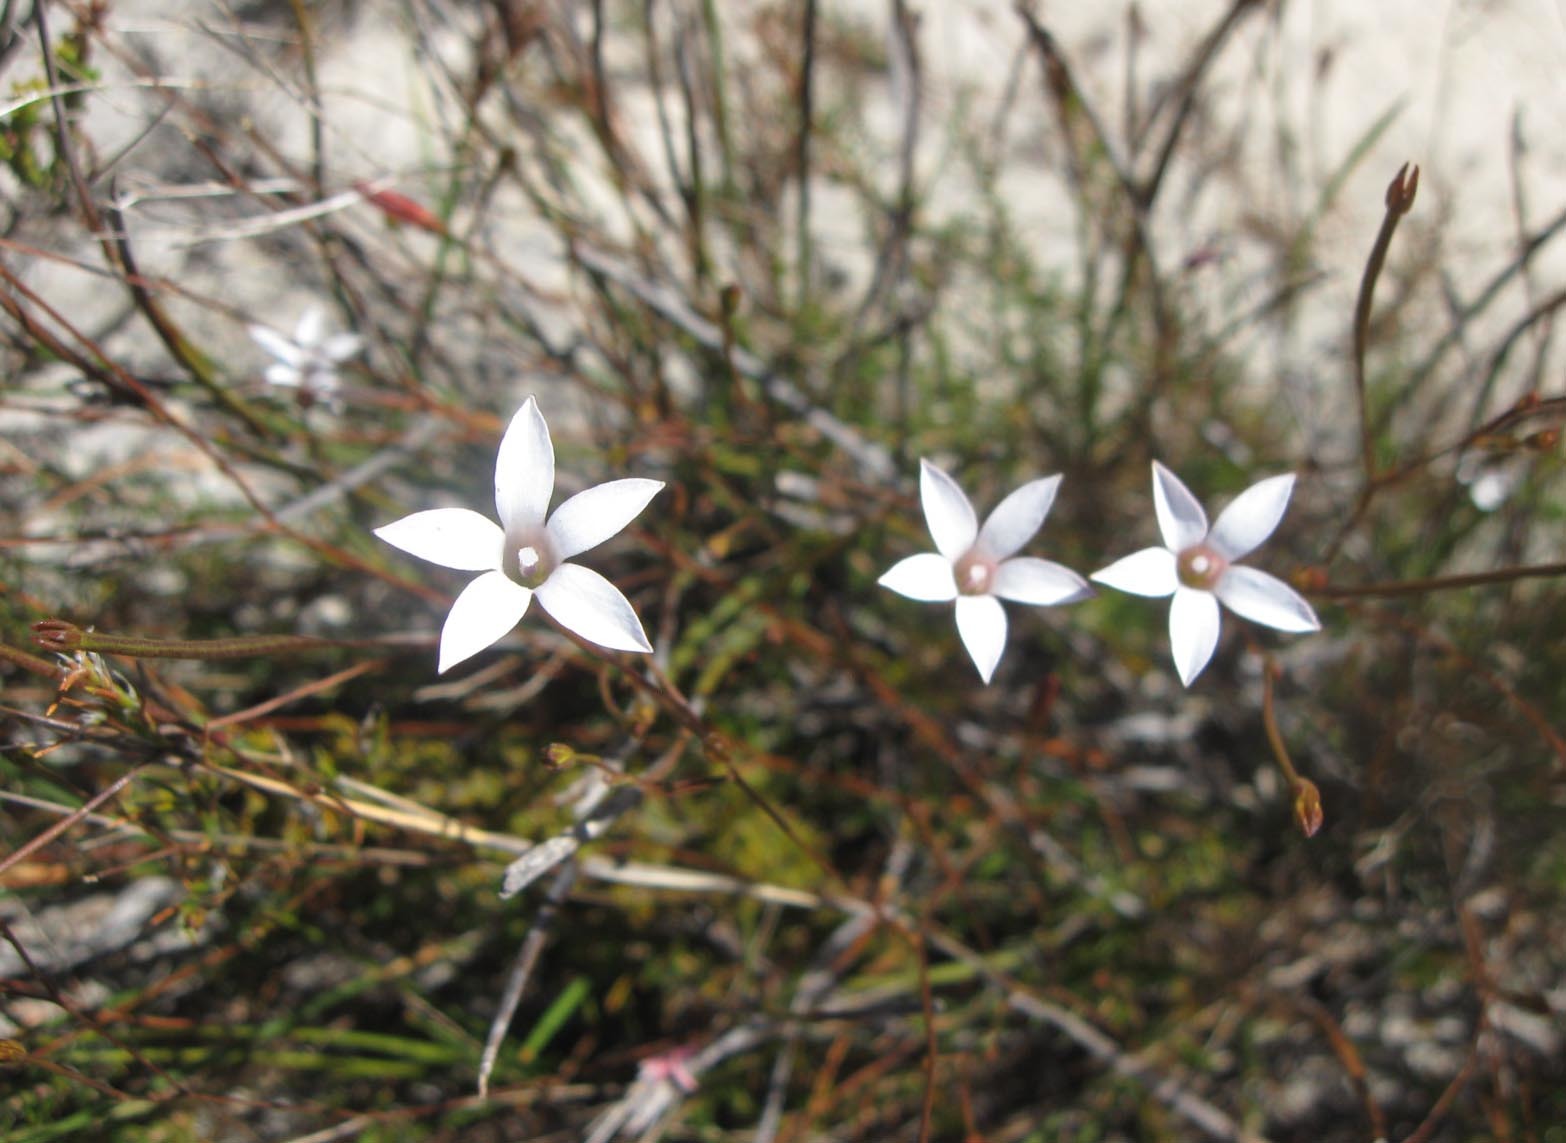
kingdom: Plantae
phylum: Tracheophyta
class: Magnoliopsida
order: Asterales
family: Campanulaceae
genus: Prismatocarpus
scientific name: Prismatocarpus fruticosus
